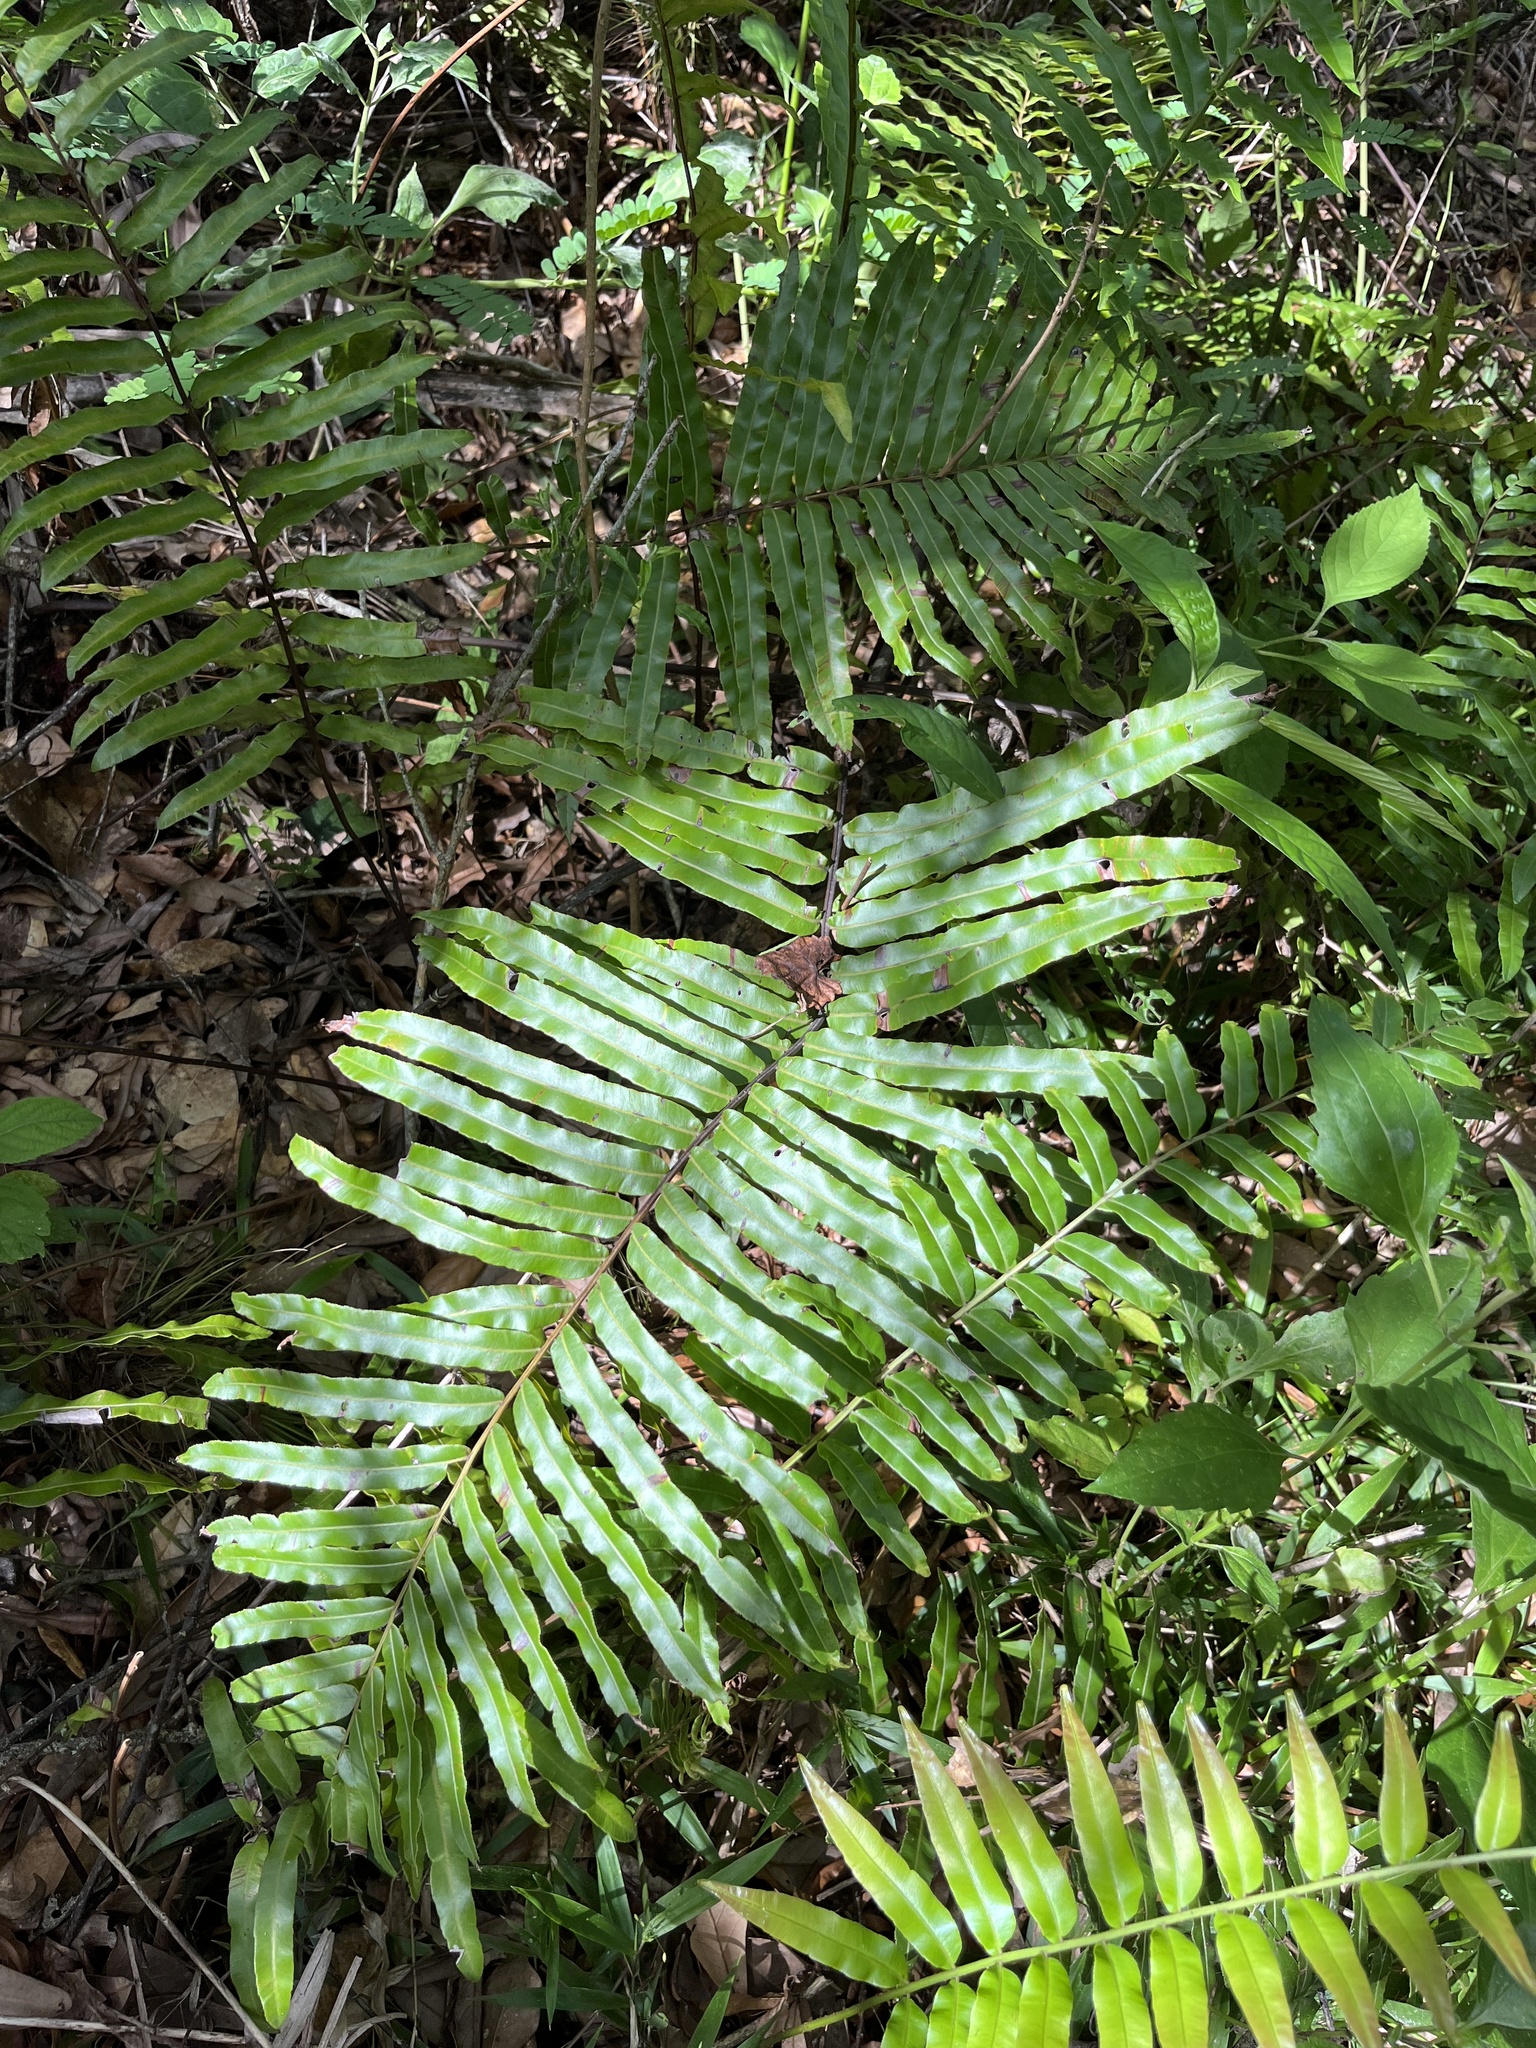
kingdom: Plantae
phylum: Tracheophyta
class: Polypodiopsida
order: Polypodiales
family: Blechnaceae
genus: Telmatoblechnum
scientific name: Telmatoblechnum serrulatum
